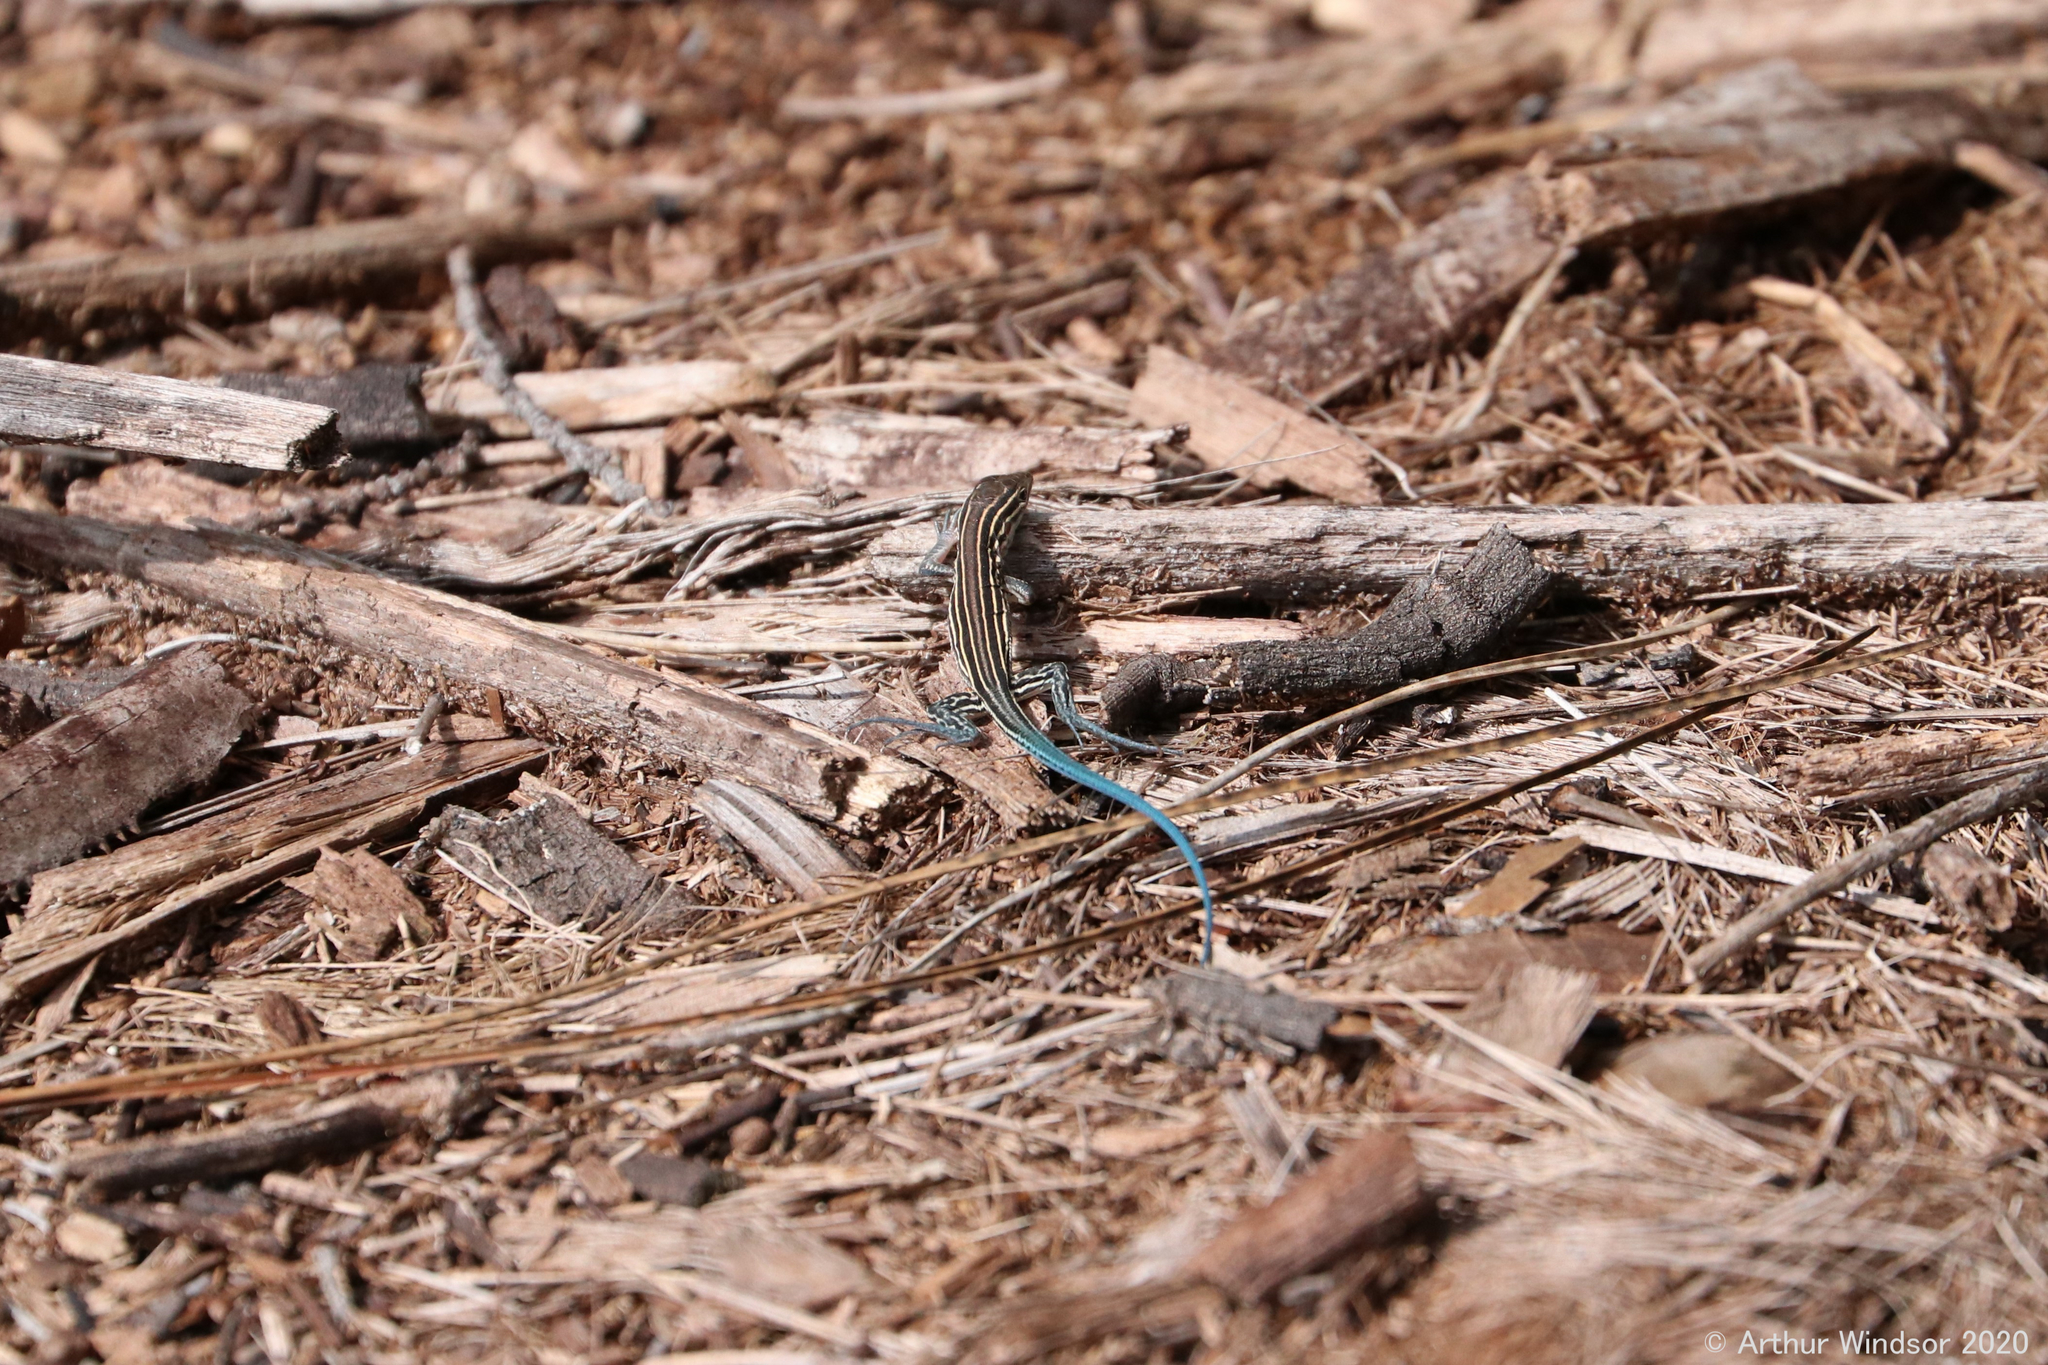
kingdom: Animalia
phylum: Chordata
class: Squamata
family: Teiidae
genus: Aspidoscelis
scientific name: Aspidoscelis sexlineatus
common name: Six-lined racerunner
